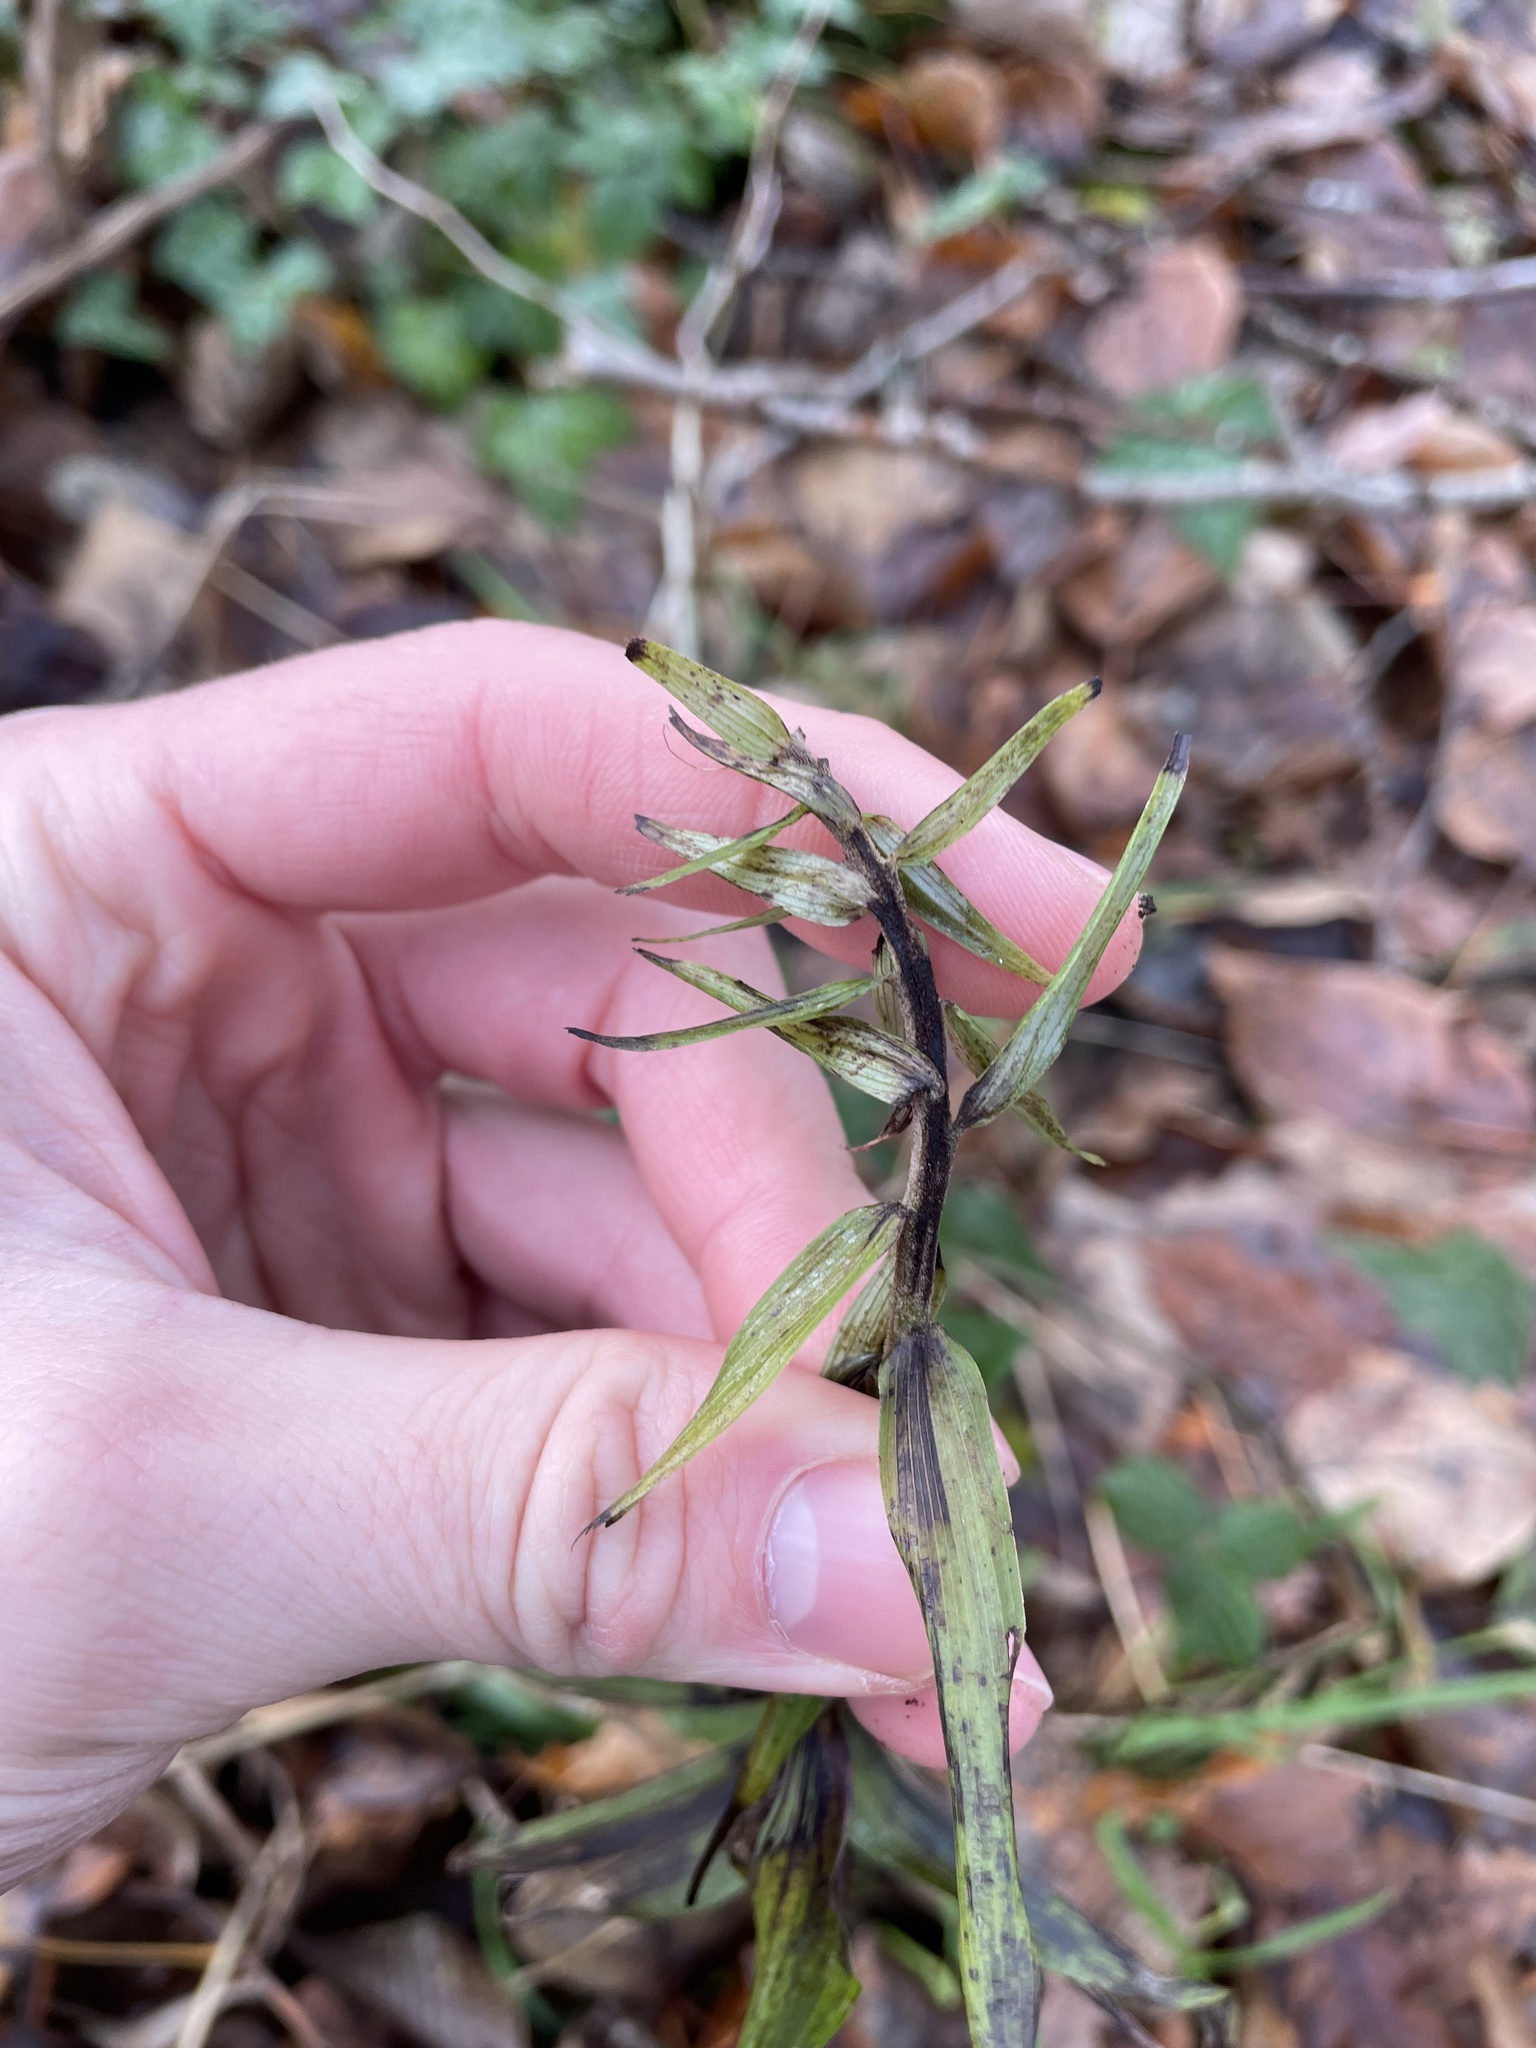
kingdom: Plantae
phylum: Tracheophyta
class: Liliopsida
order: Asparagales
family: Orchidaceae
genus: Epipactis
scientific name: Epipactis helleborine
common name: Broad-leaved helleborine
